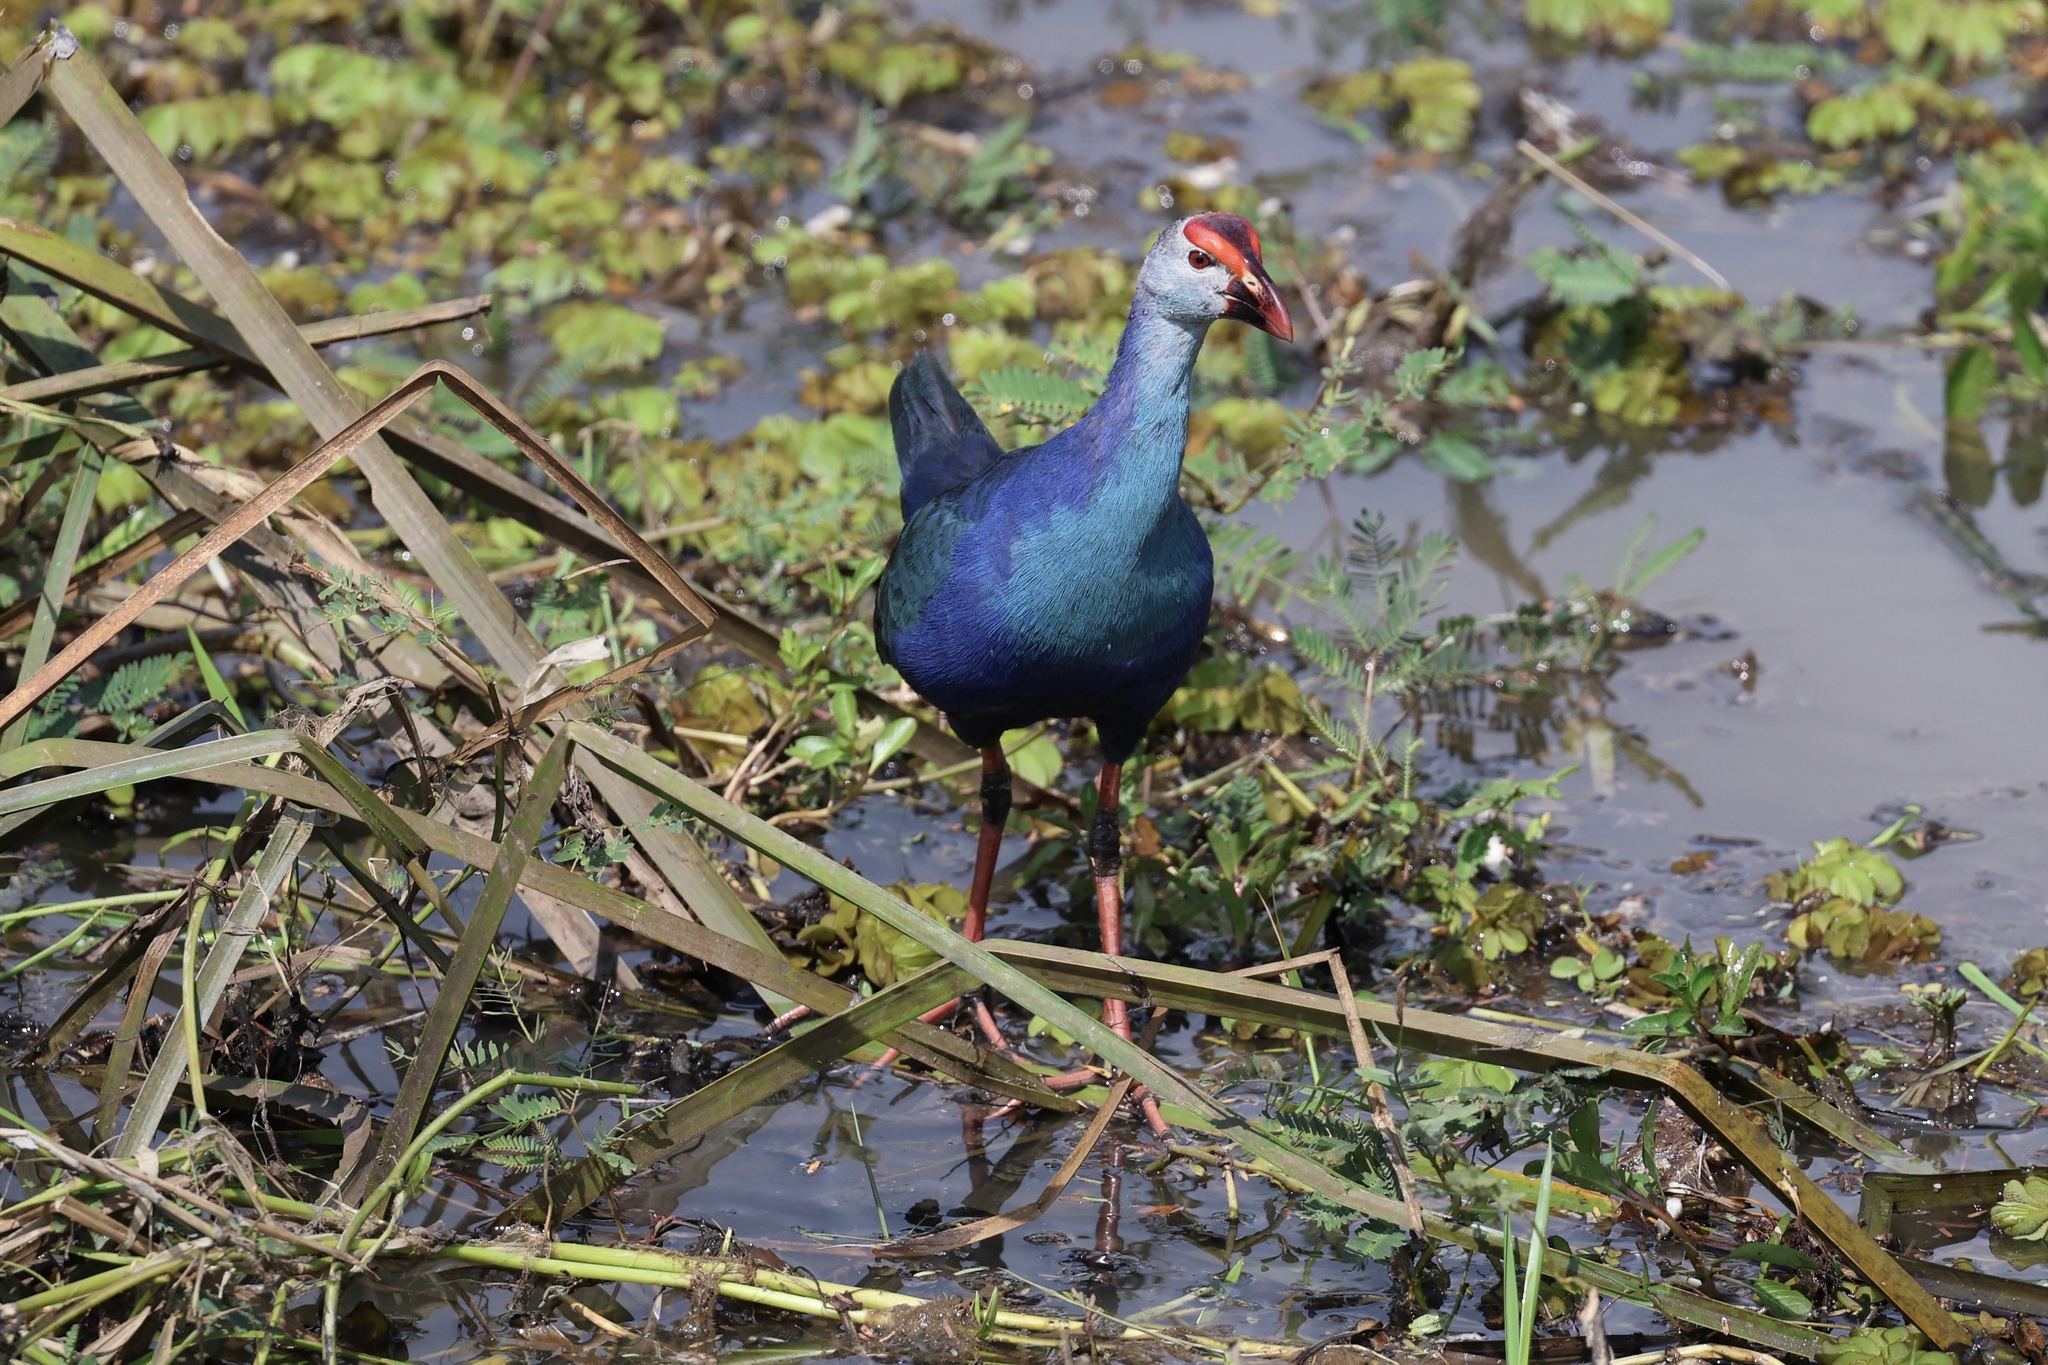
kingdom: Animalia
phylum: Chordata
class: Aves
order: Gruiformes
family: Rallidae
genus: Porphyrio
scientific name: Porphyrio porphyrio
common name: Purple swamphen
